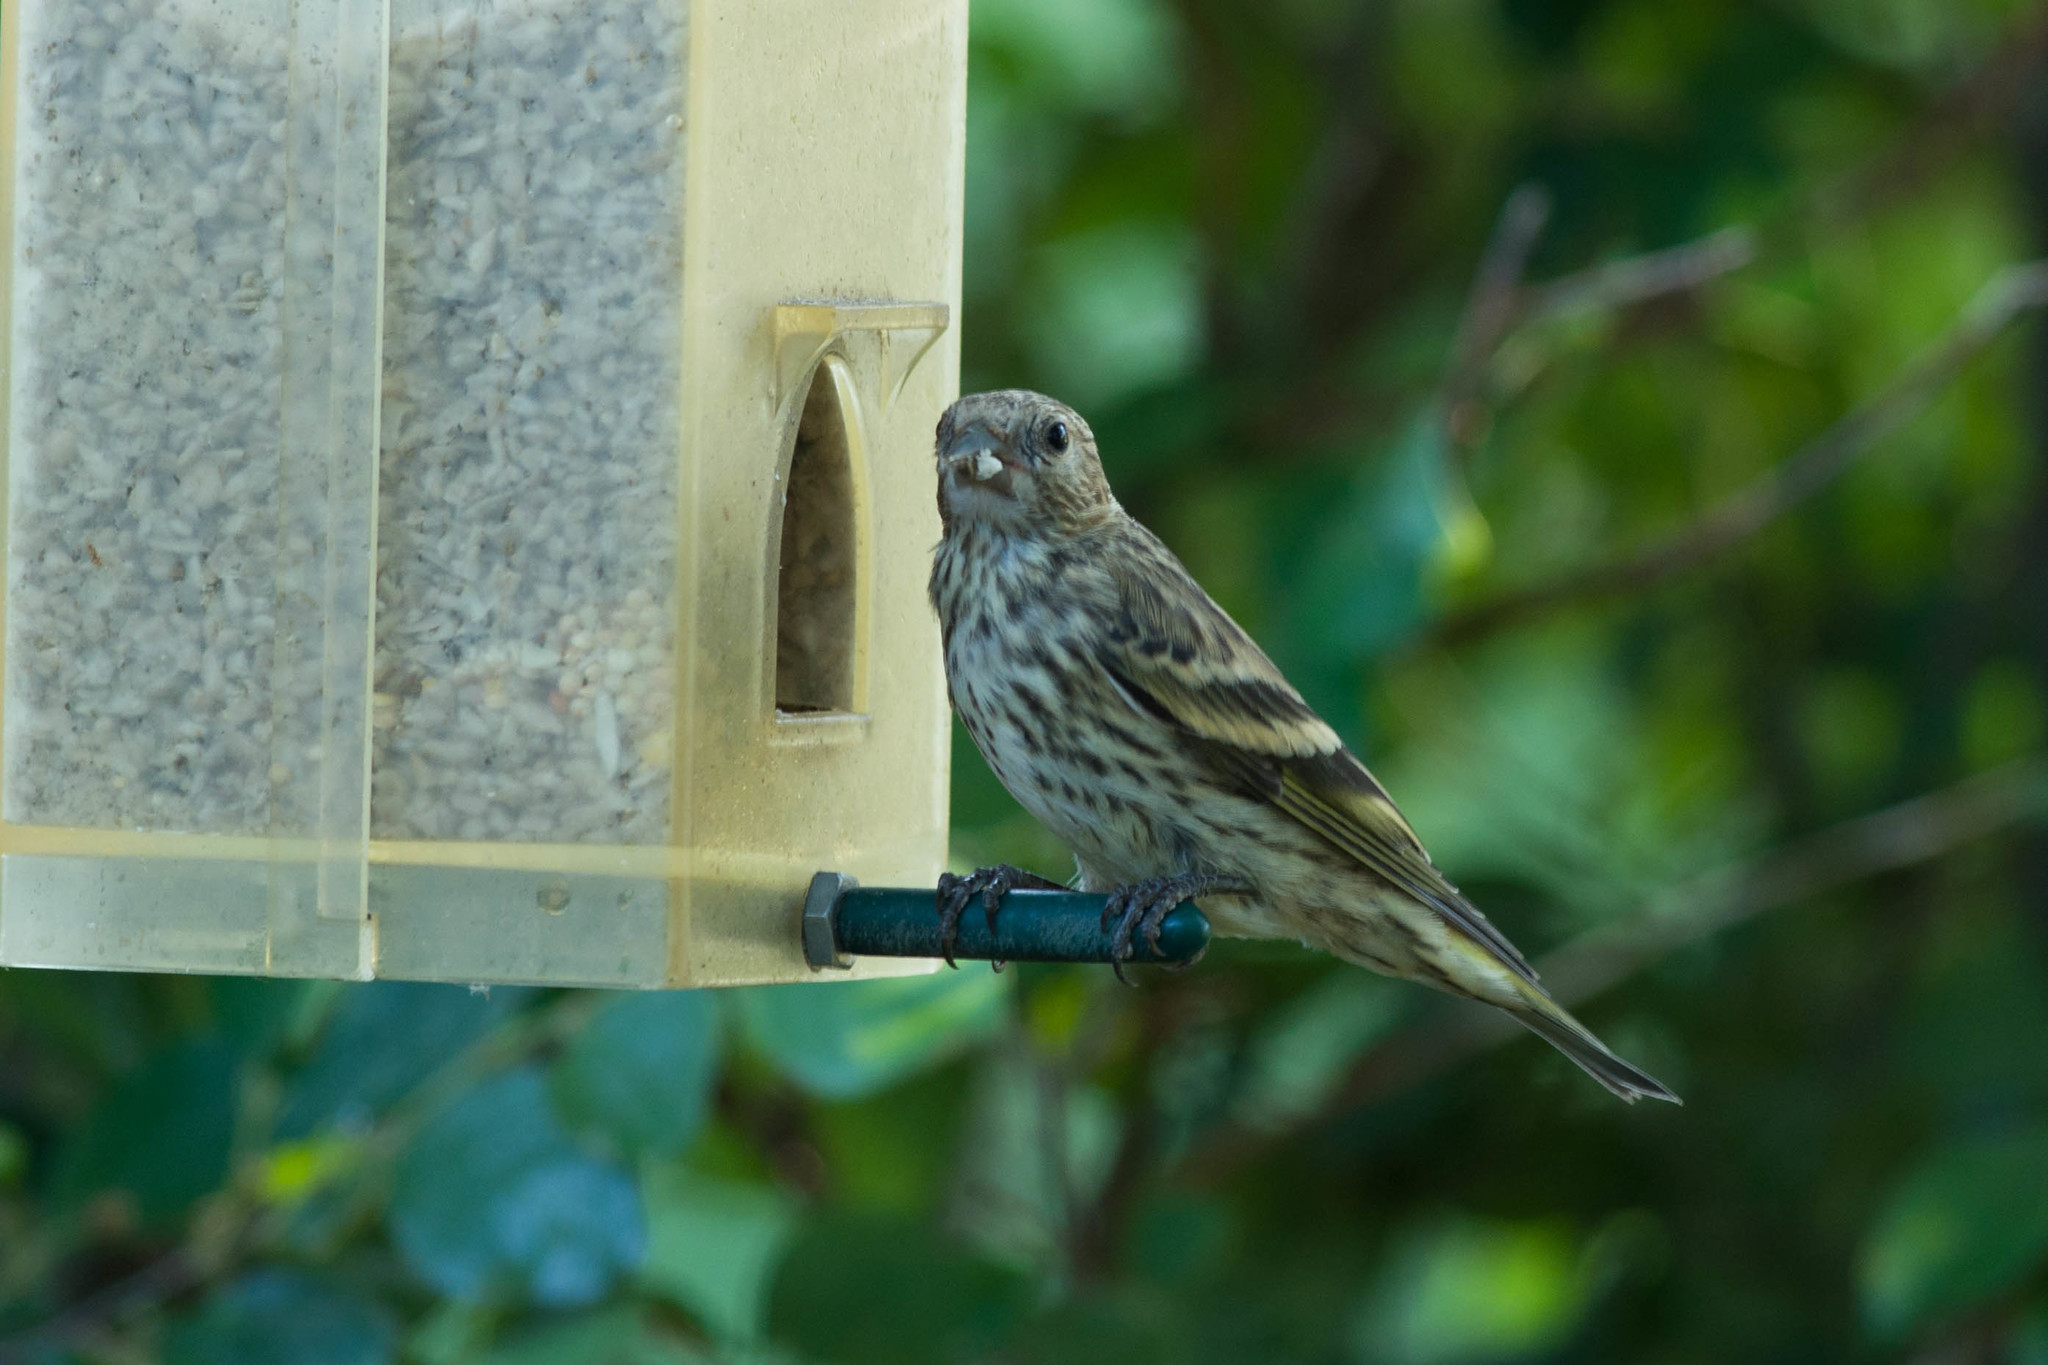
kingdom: Animalia
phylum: Chordata
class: Aves
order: Passeriformes
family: Fringillidae
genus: Spinus
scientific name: Spinus pinus
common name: Pine siskin
